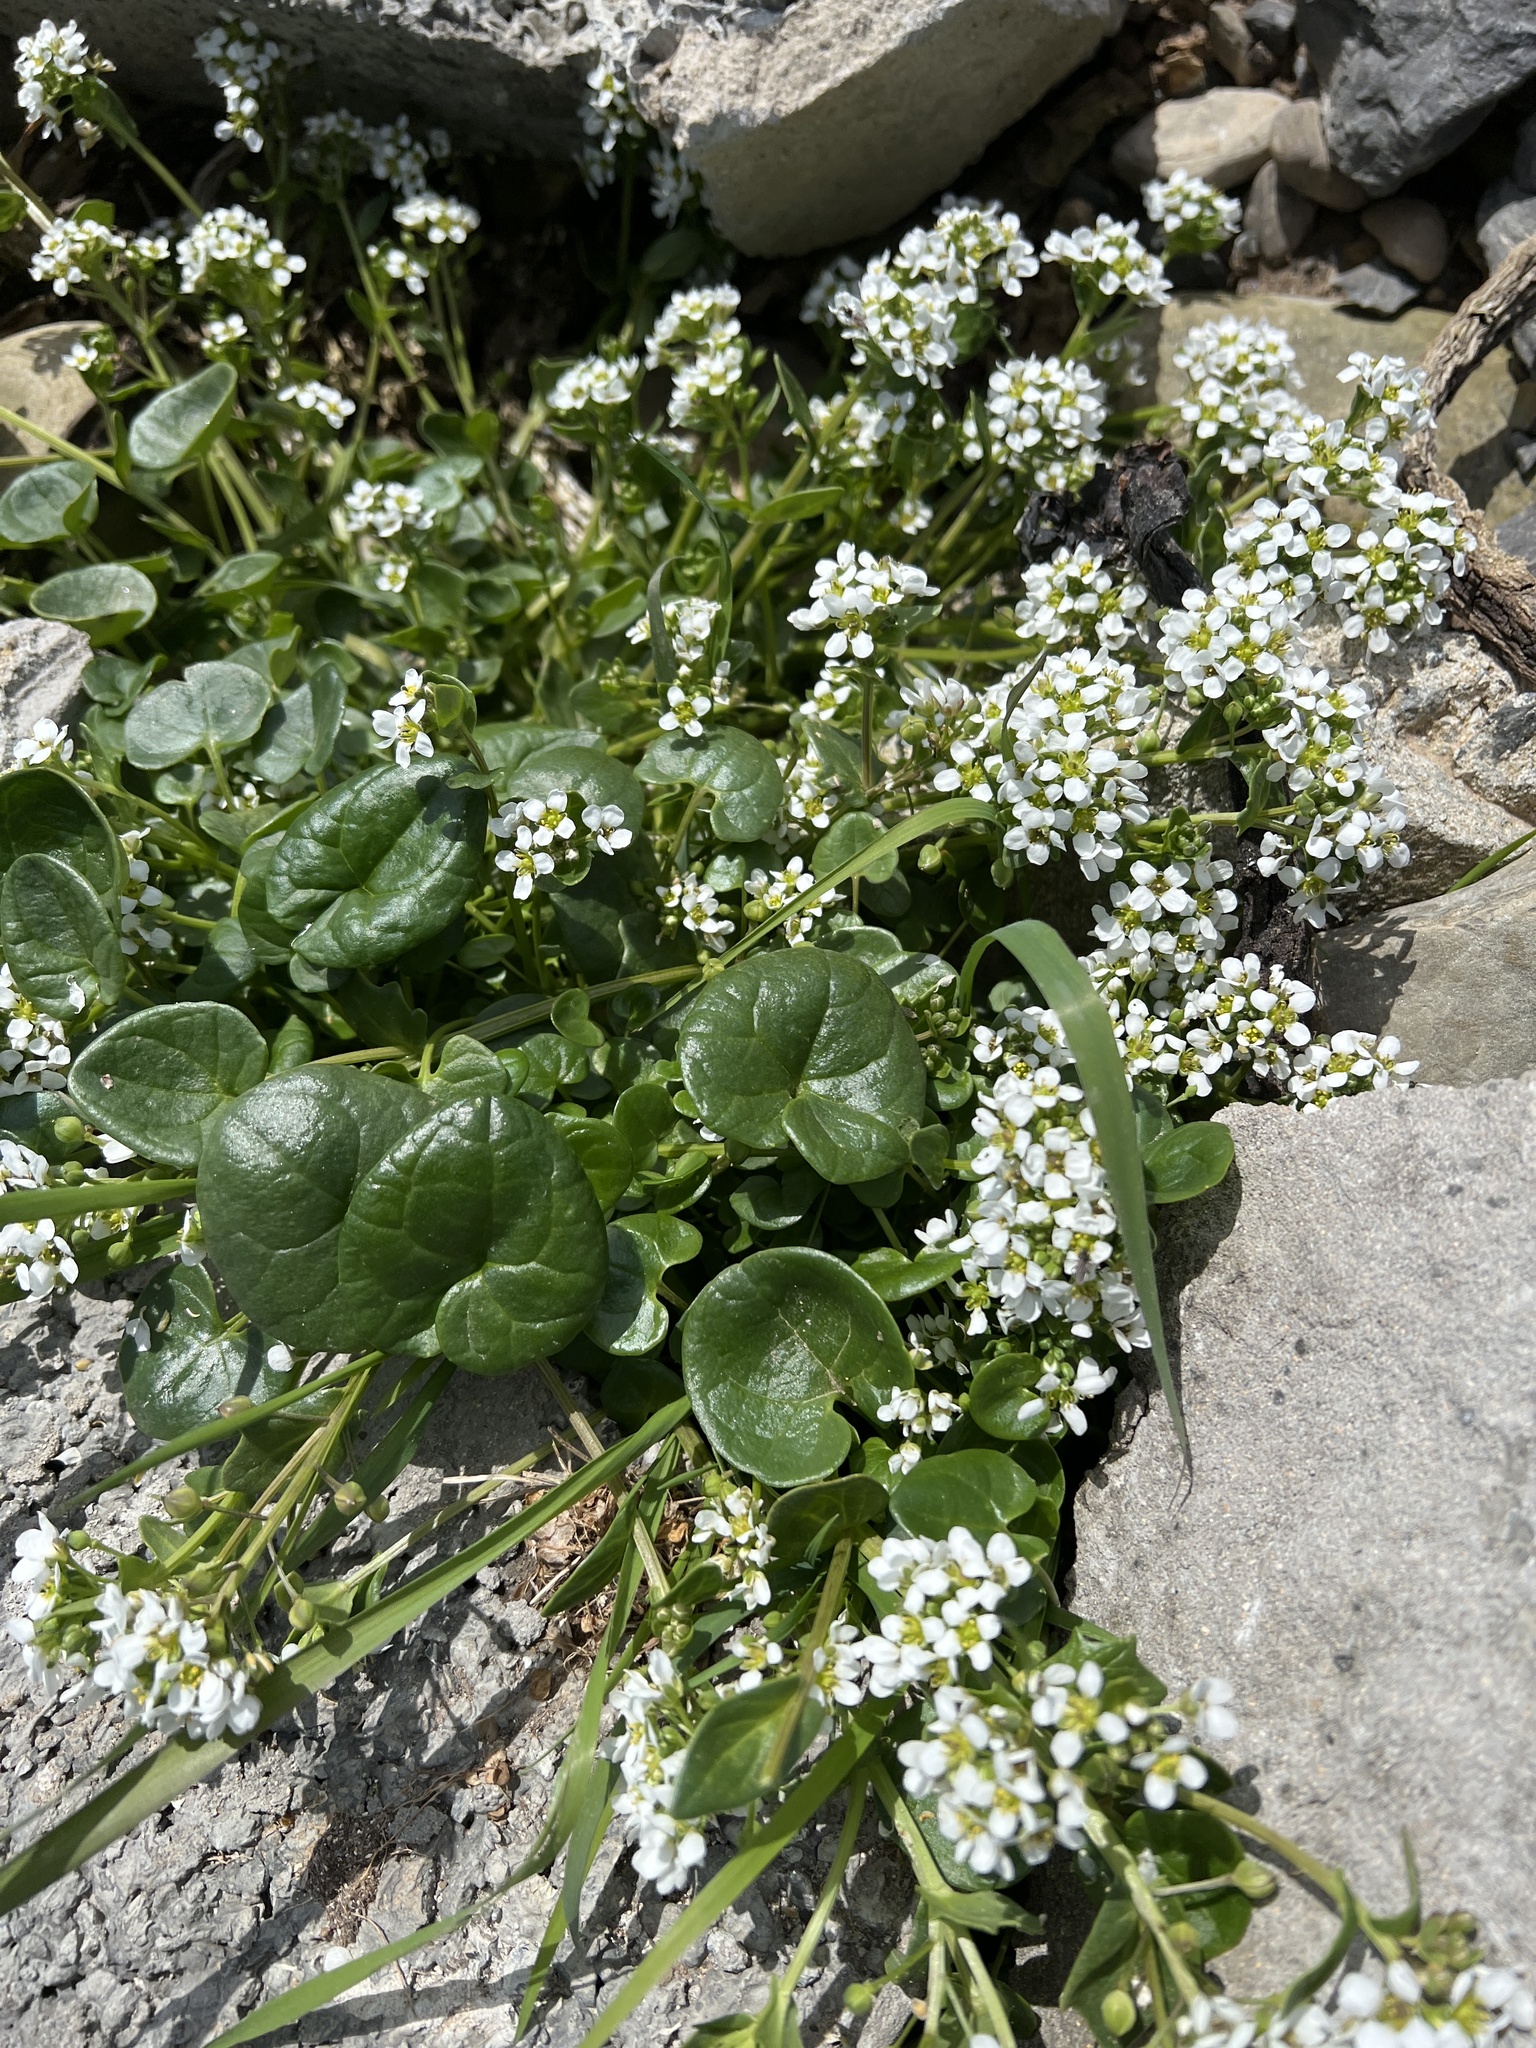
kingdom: Plantae
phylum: Tracheophyta
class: Magnoliopsida
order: Brassicales
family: Brassicaceae
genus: Cochlearia
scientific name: Cochlearia officinalis
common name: Scurvy-grass
